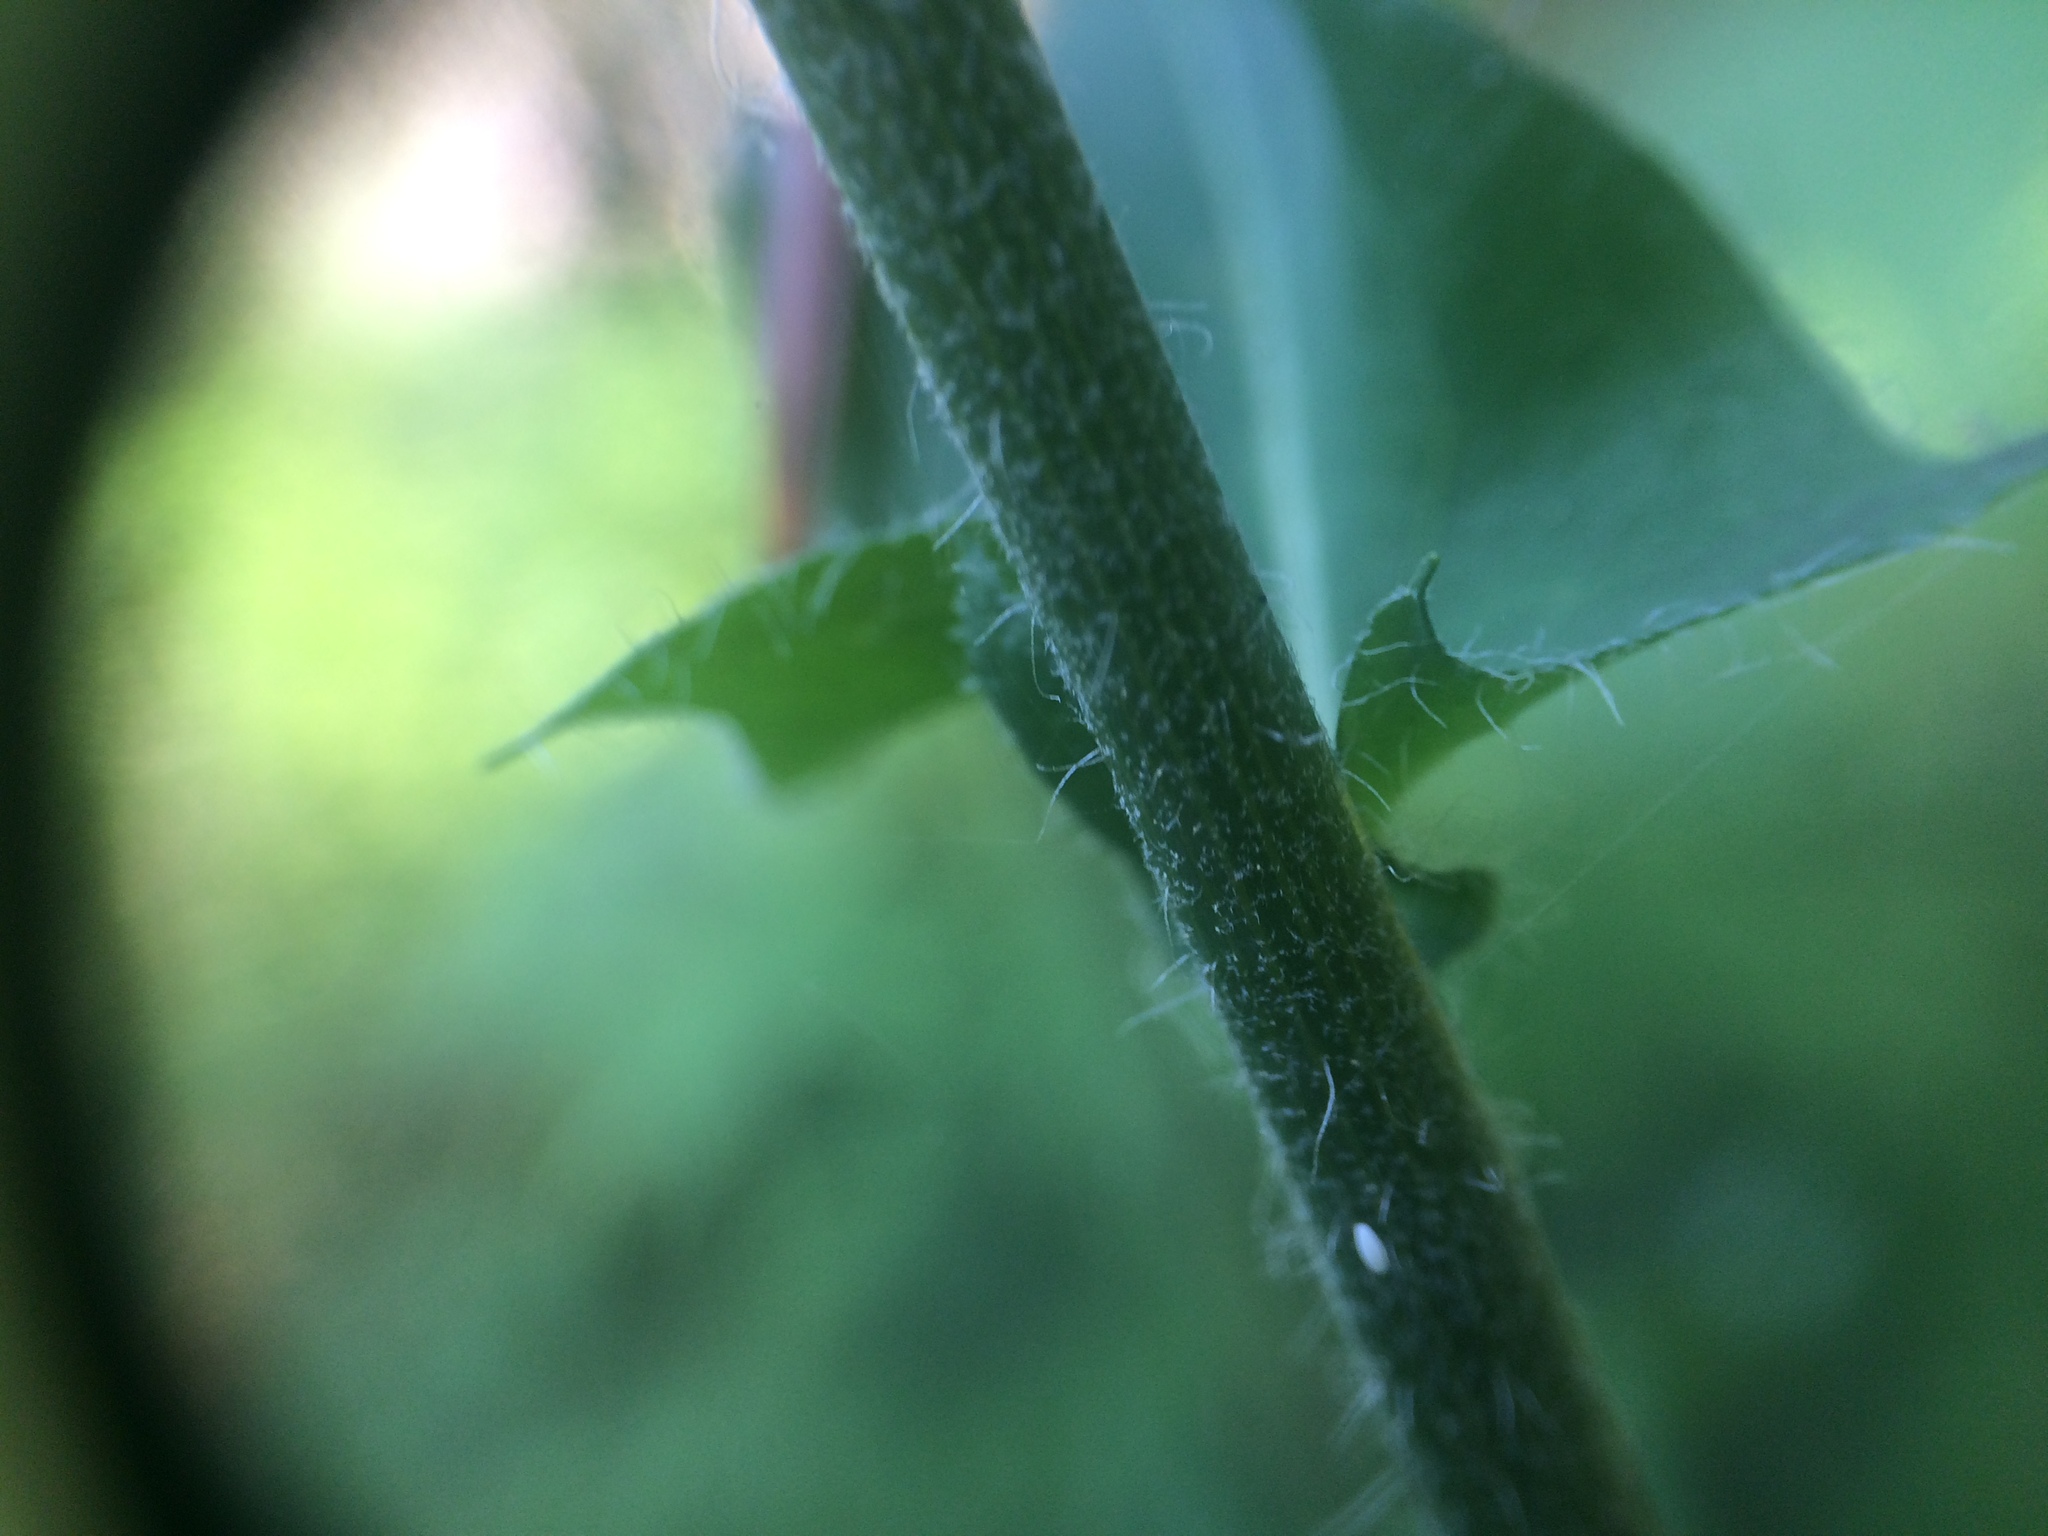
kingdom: Plantae
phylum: Tracheophyta
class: Magnoliopsida
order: Asterales
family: Asteraceae
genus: Hieracium
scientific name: Hieracium maculatum
